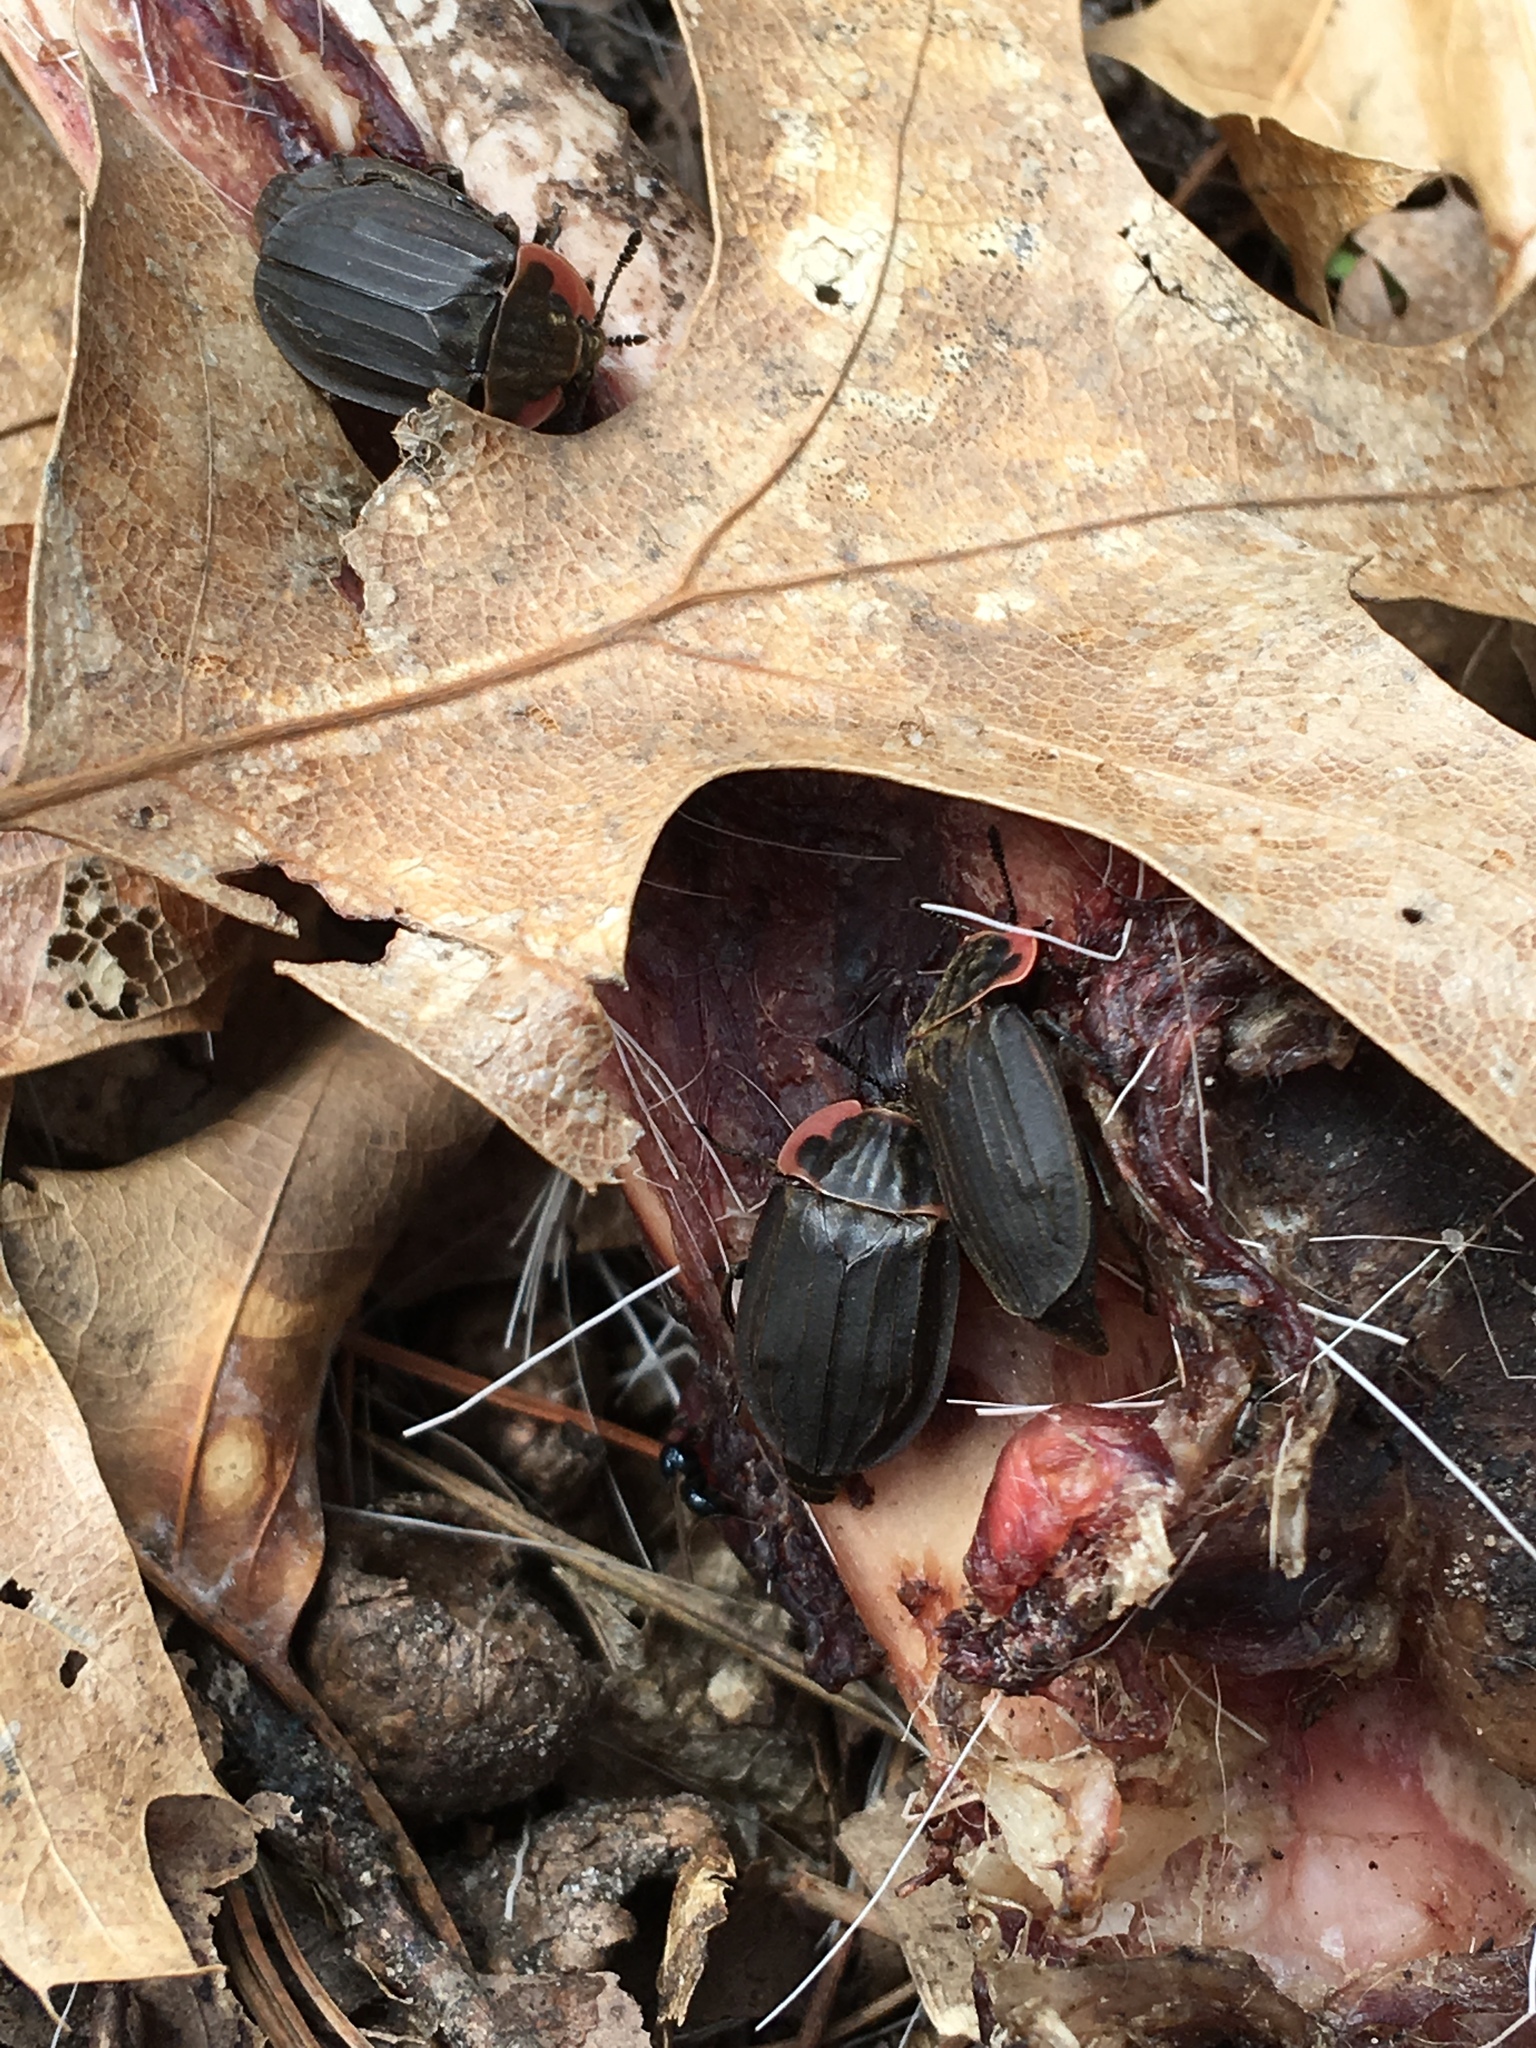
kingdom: Animalia
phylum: Arthropoda
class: Insecta
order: Coleoptera
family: Staphylinidae
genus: Oiceoptoma
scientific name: Oiceoptoma noveboracense
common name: Margined carrion beetle
